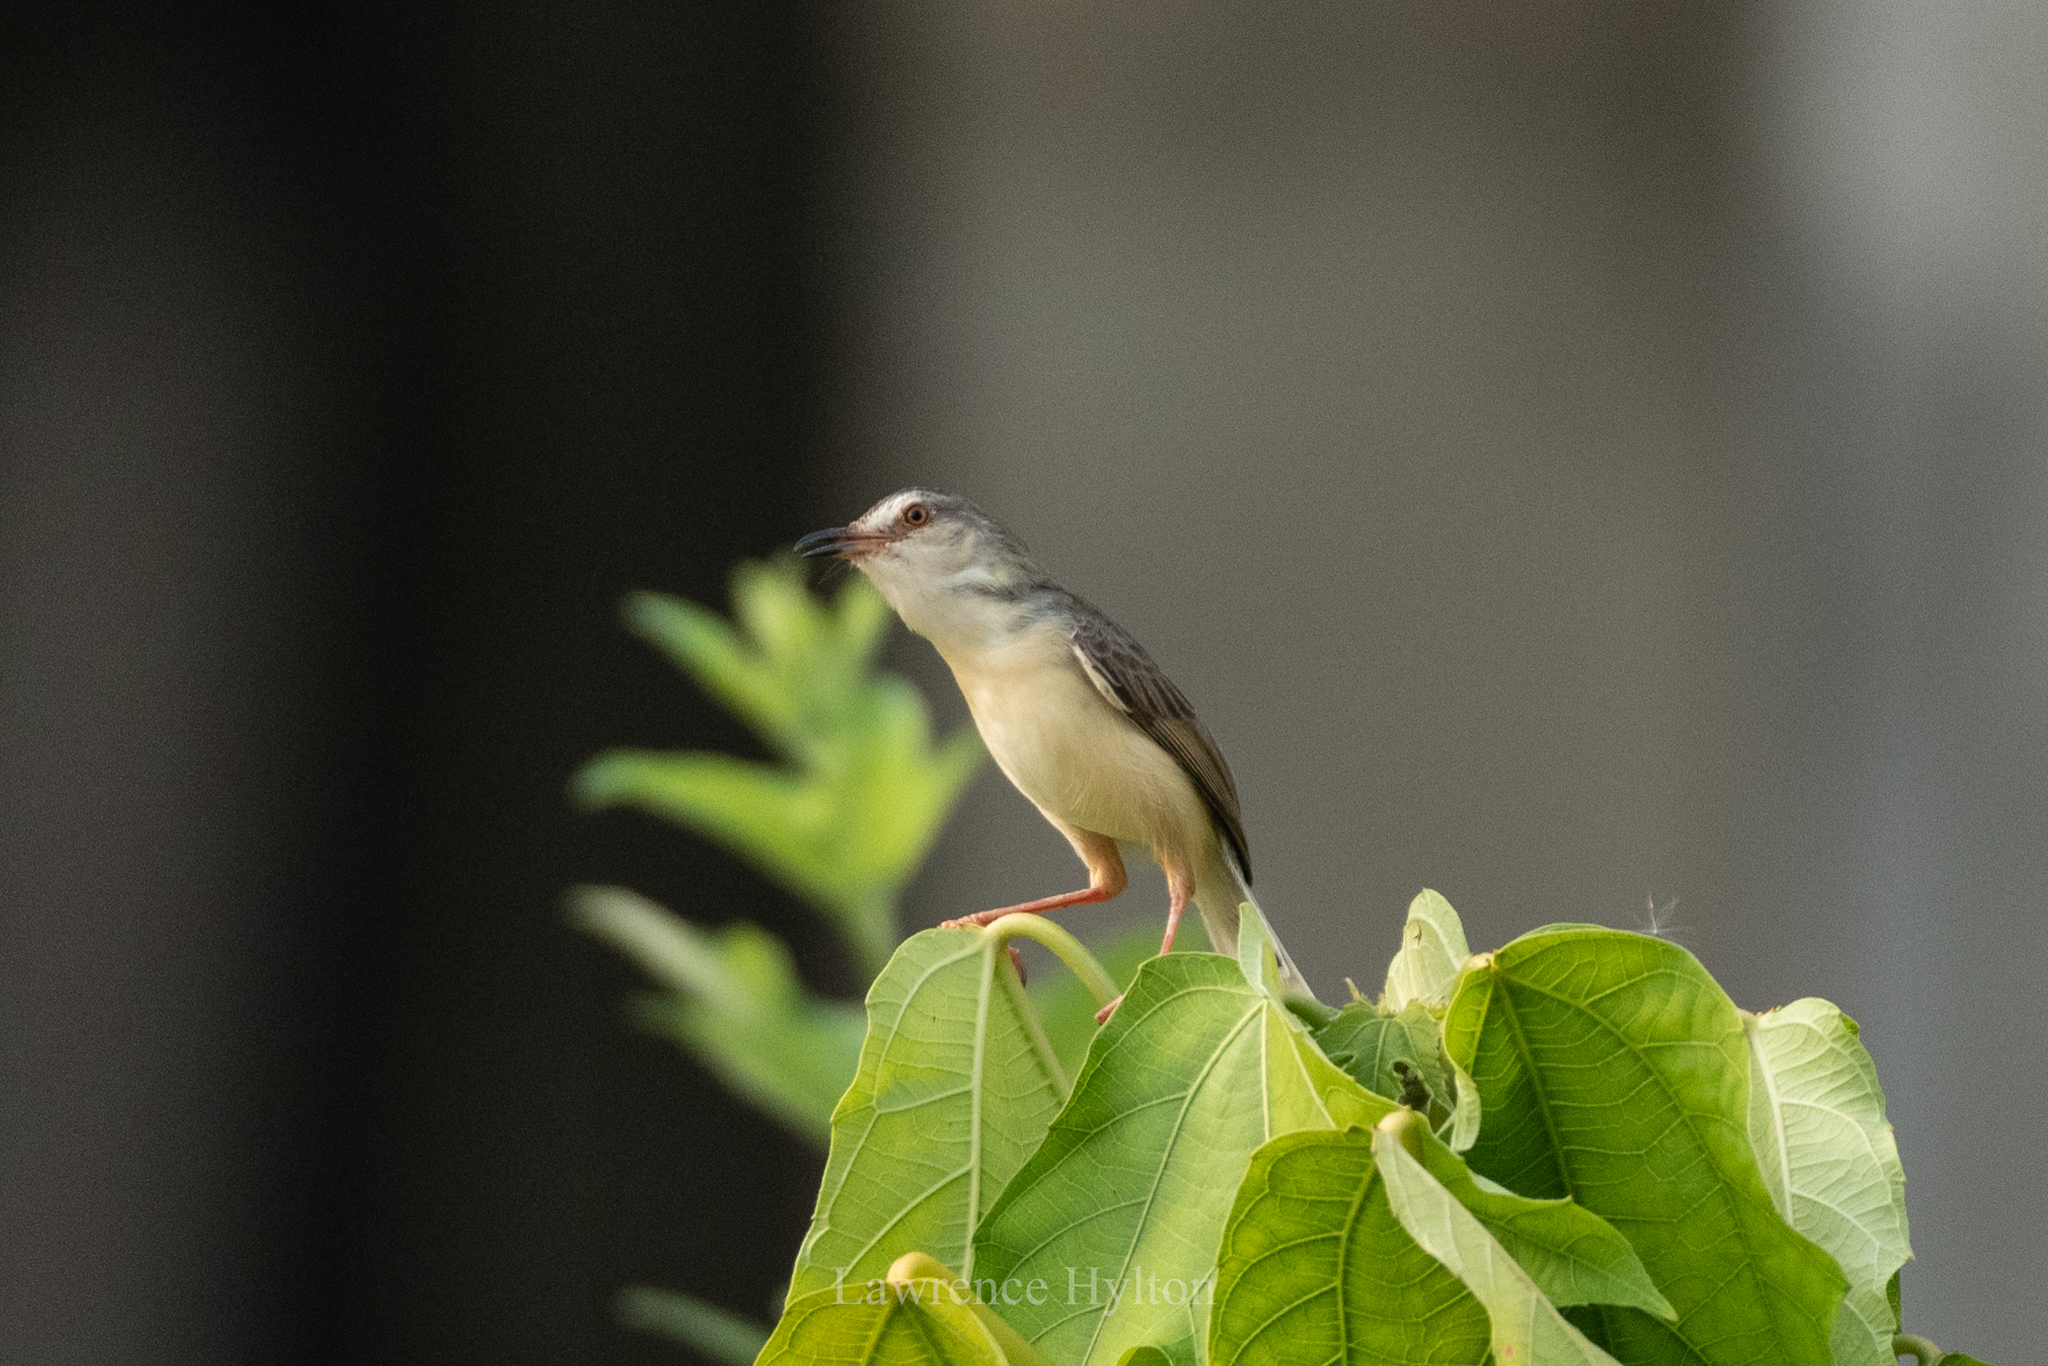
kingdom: Animalia
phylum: Chordata
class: Aves
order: Passeriformes
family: Cisticolidae
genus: Prinia
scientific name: Prinia inornata
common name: Plain prinia
